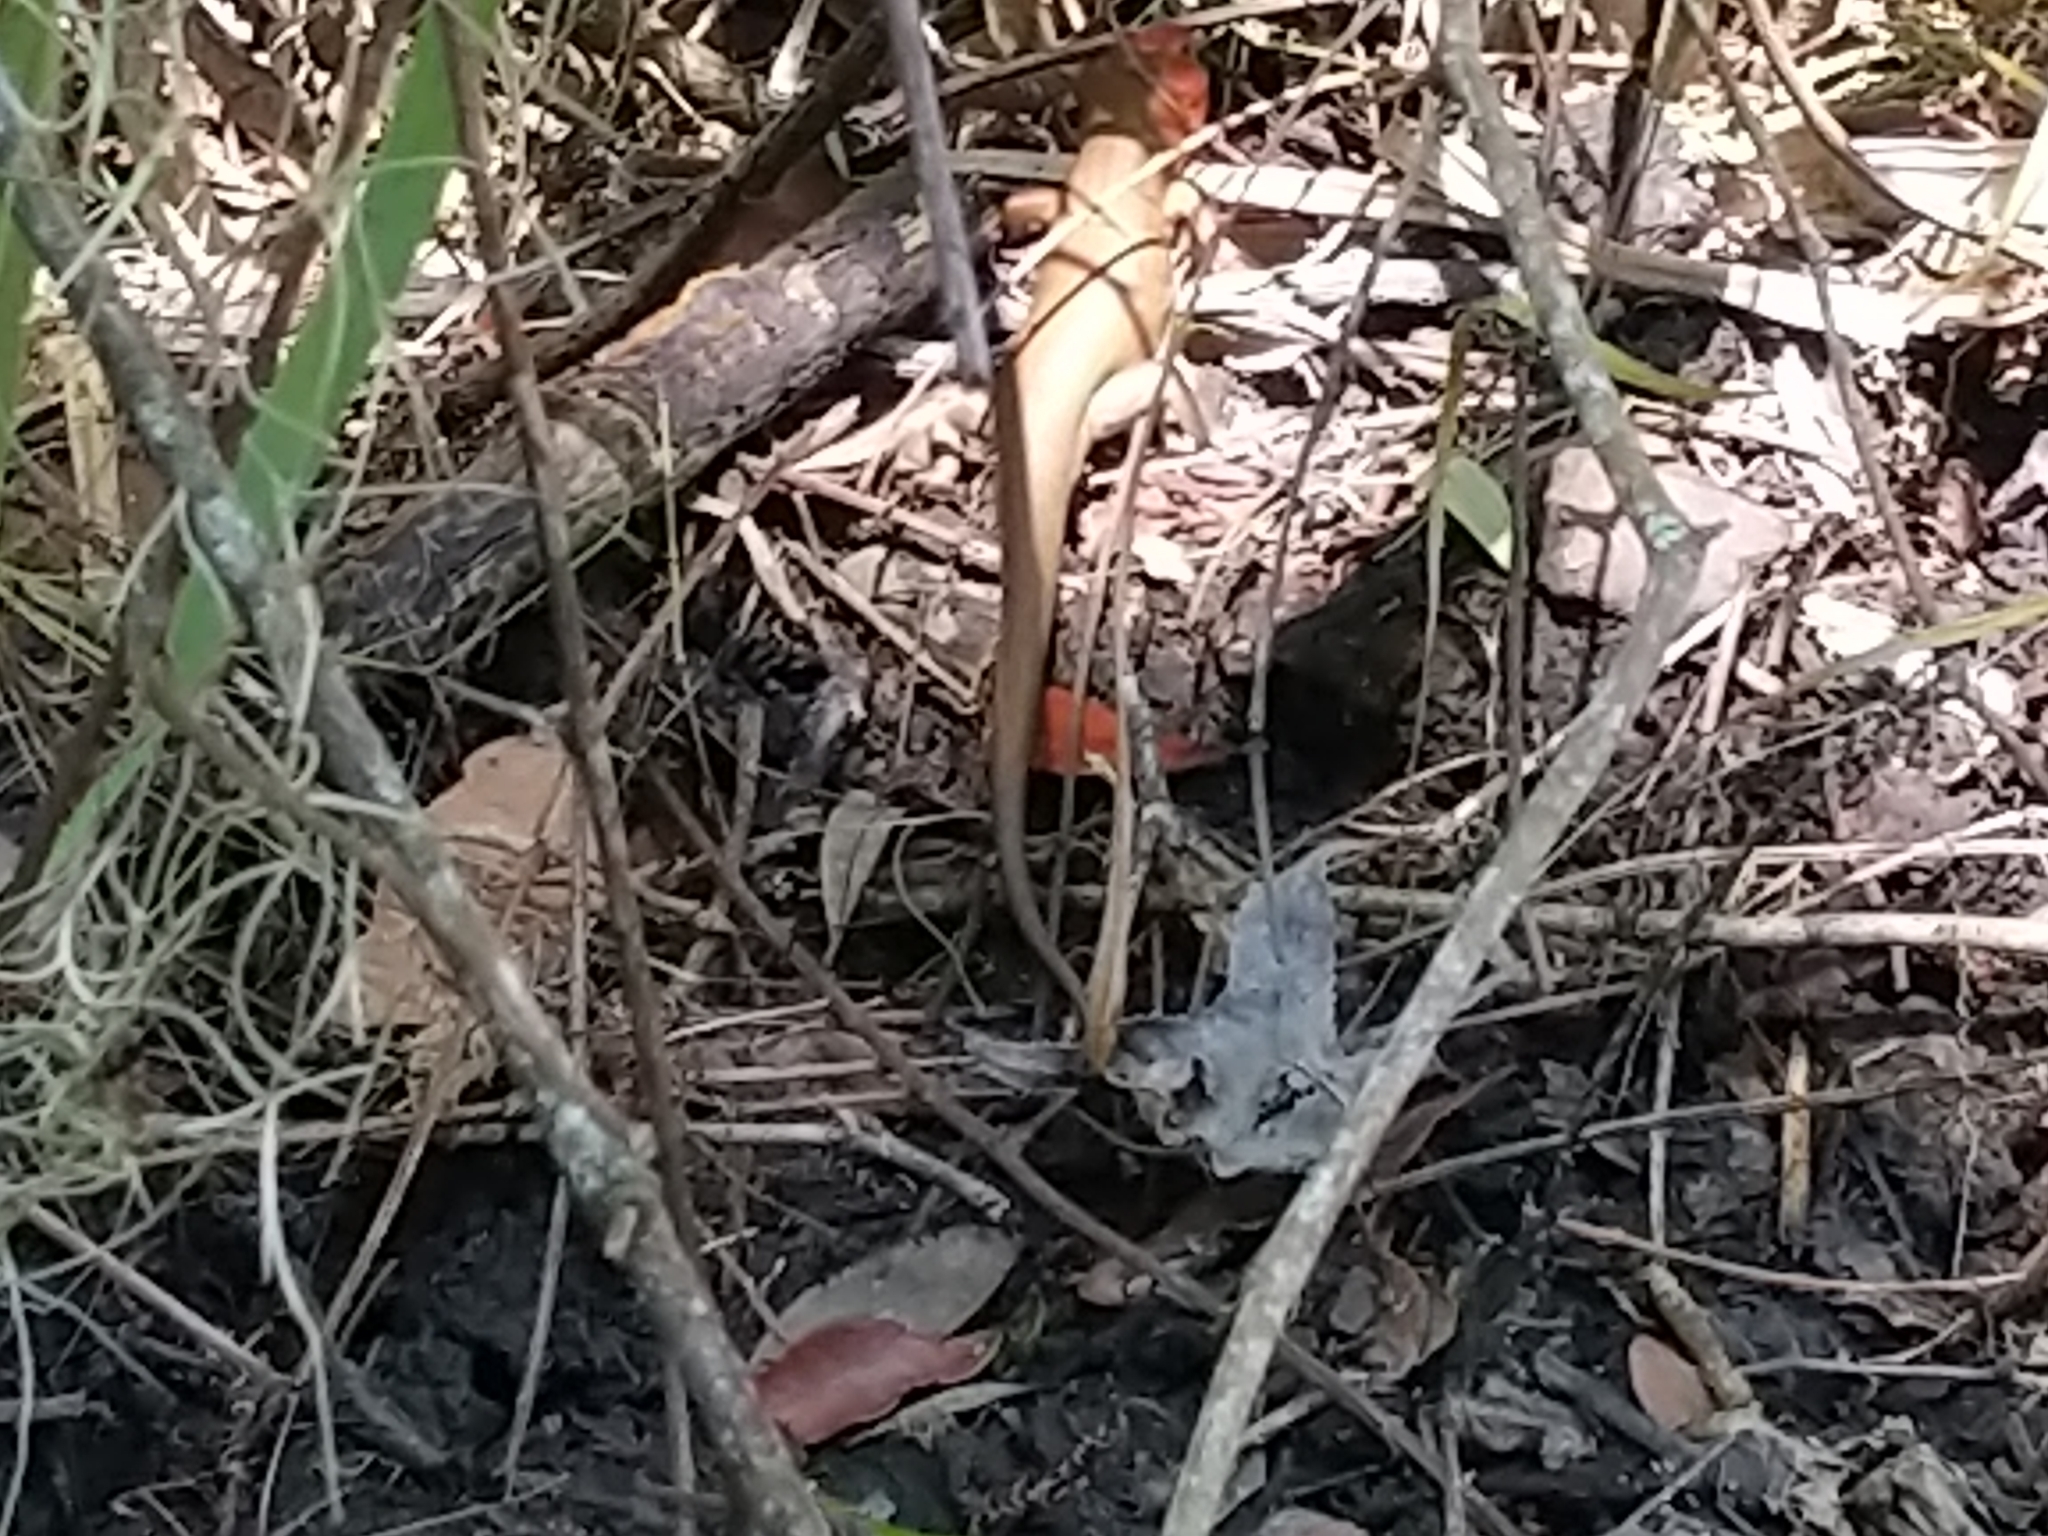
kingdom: Animalia
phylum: Chordata
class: Squamata
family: Scincidae
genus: Plestiodon
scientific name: Plestiodon laticeps
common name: Broadhead skink
